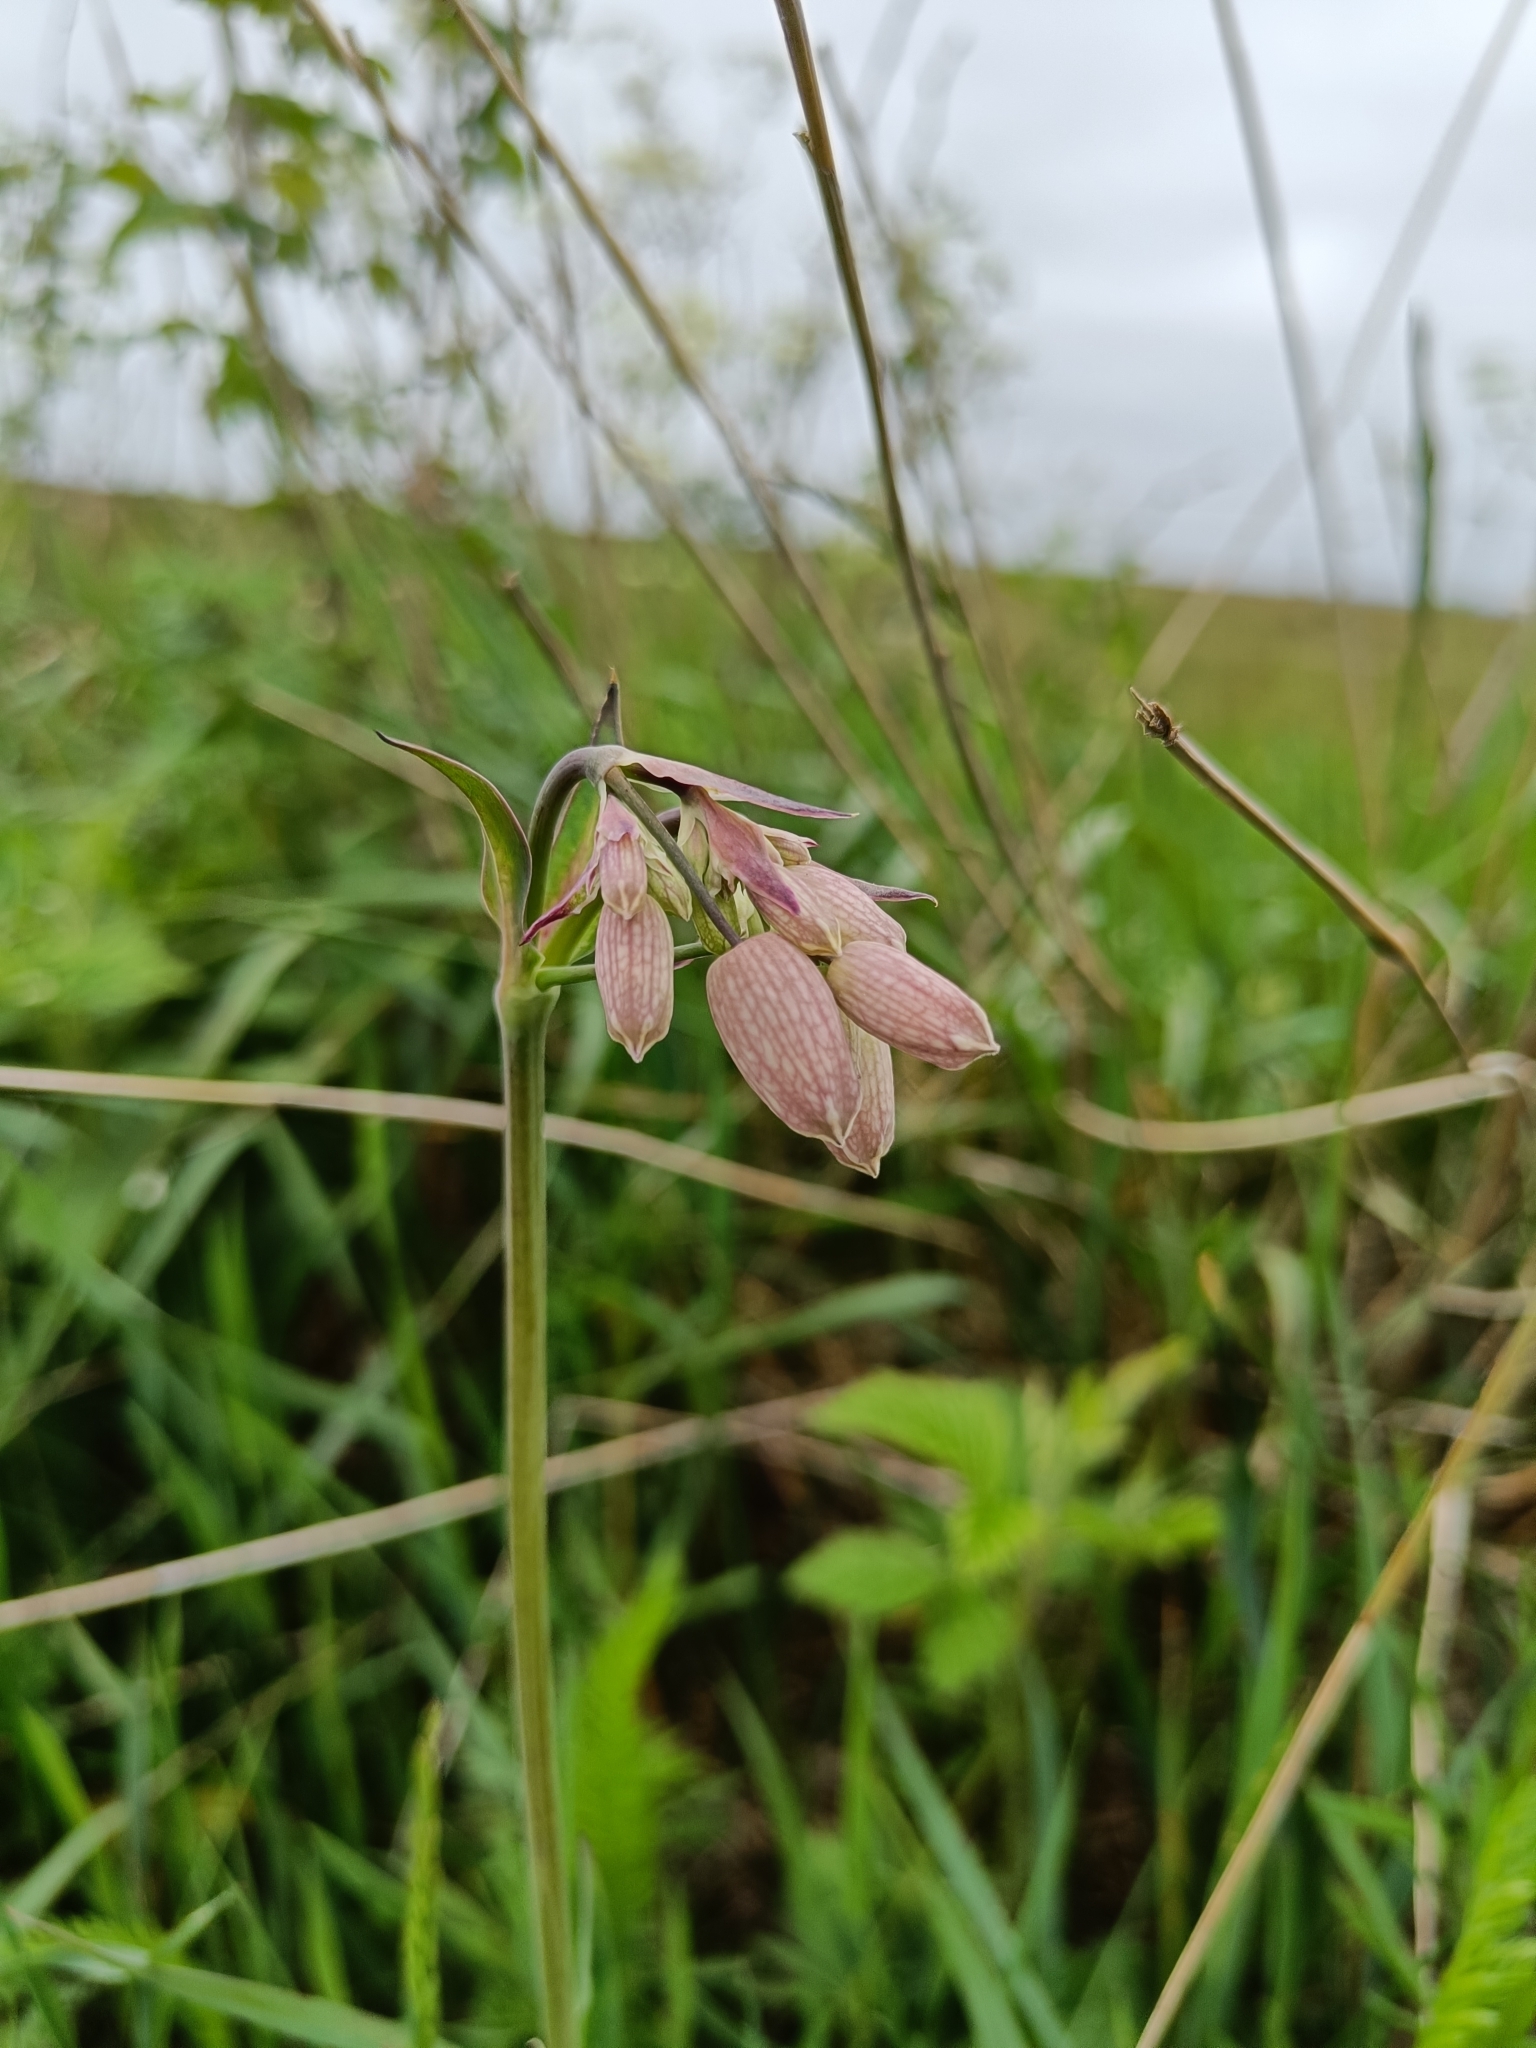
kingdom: Plantae
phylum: Tracheophyta
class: Magnoliopsida
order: Caryophyllales
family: Caryophyllaceae
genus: Silene
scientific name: Silene vulgaris
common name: Bladder campion
